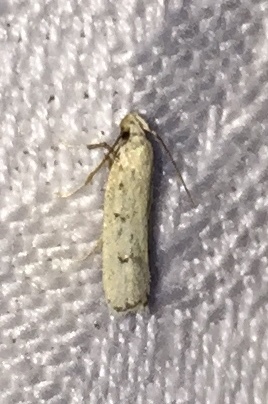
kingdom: Animalia
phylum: Arthropoda
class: Insecta
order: Lepidoptera
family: Autostichidae
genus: Glyphidocera
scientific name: Glyphidocera lactiflosella
